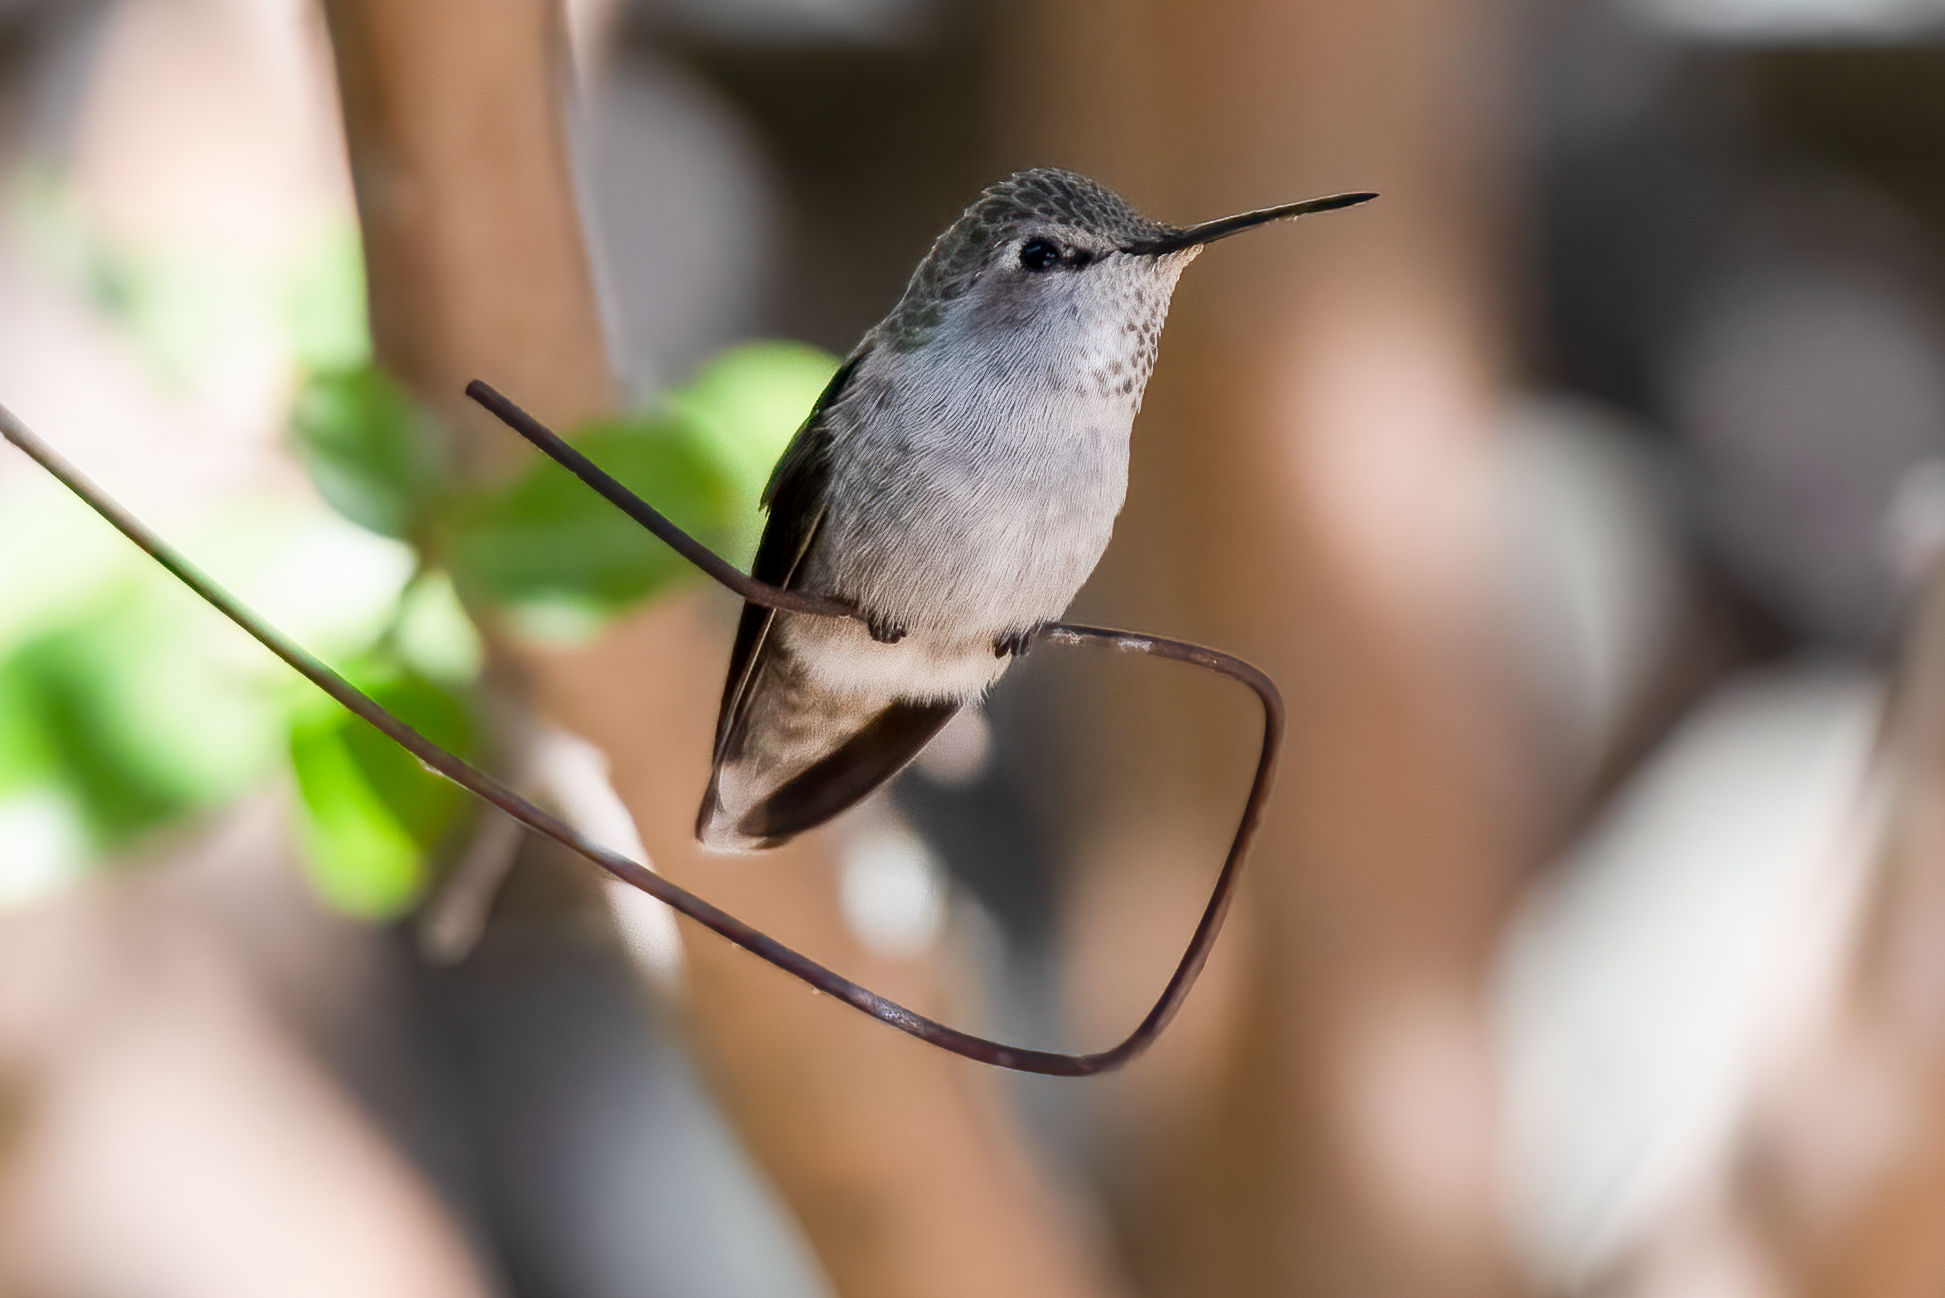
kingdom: Animalia
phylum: Chordata
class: Aves
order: Apodiformes
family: Trochilidae
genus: Calypte
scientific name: Calypte anna
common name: Anna's hummingbird
